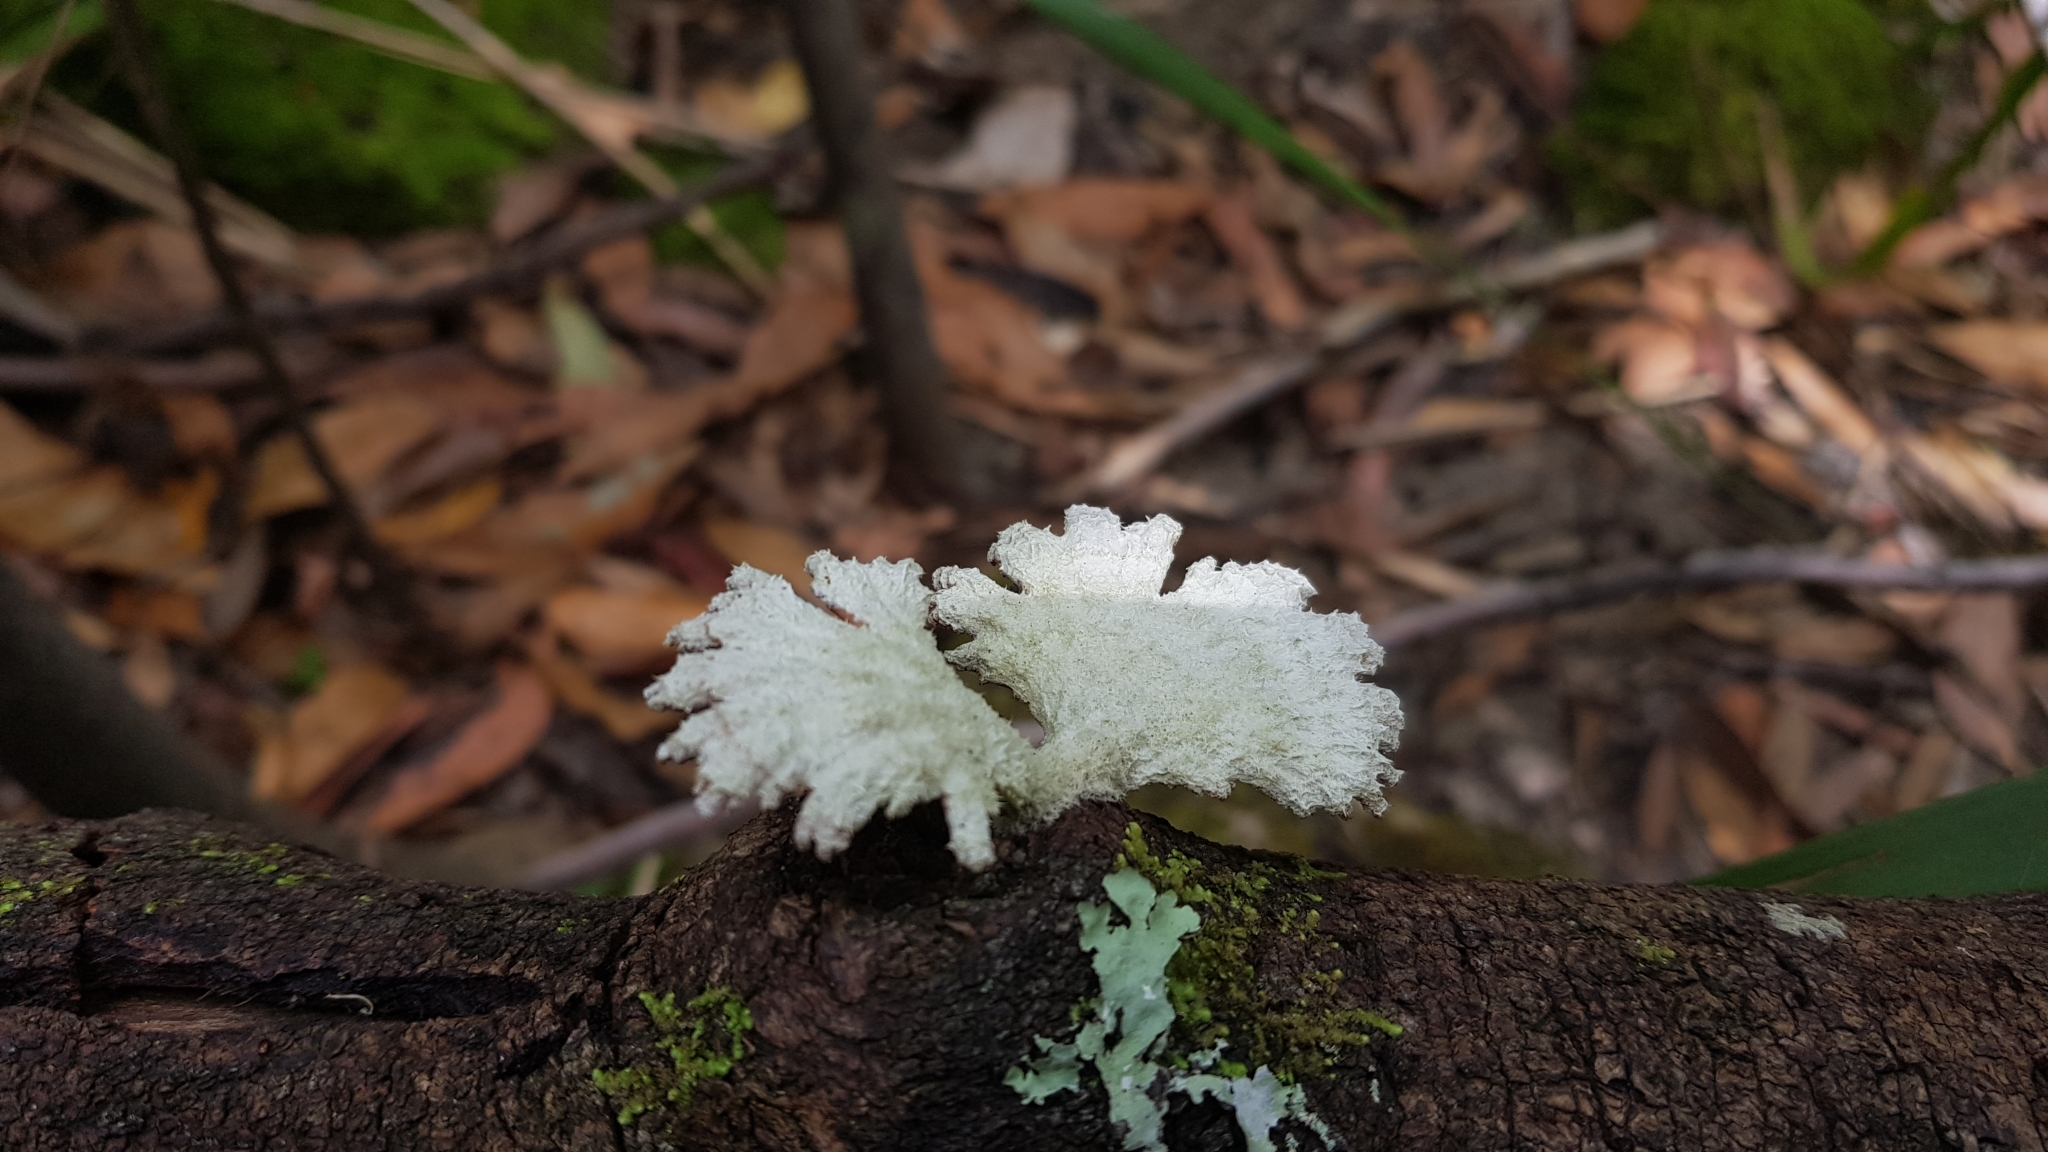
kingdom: Fungi
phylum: Basidiomycota
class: Agaricomycetes
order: Agaricales
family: Schizophyllaceae
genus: Schizophyllum
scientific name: Schizophyllum commune
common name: Common porecrust
